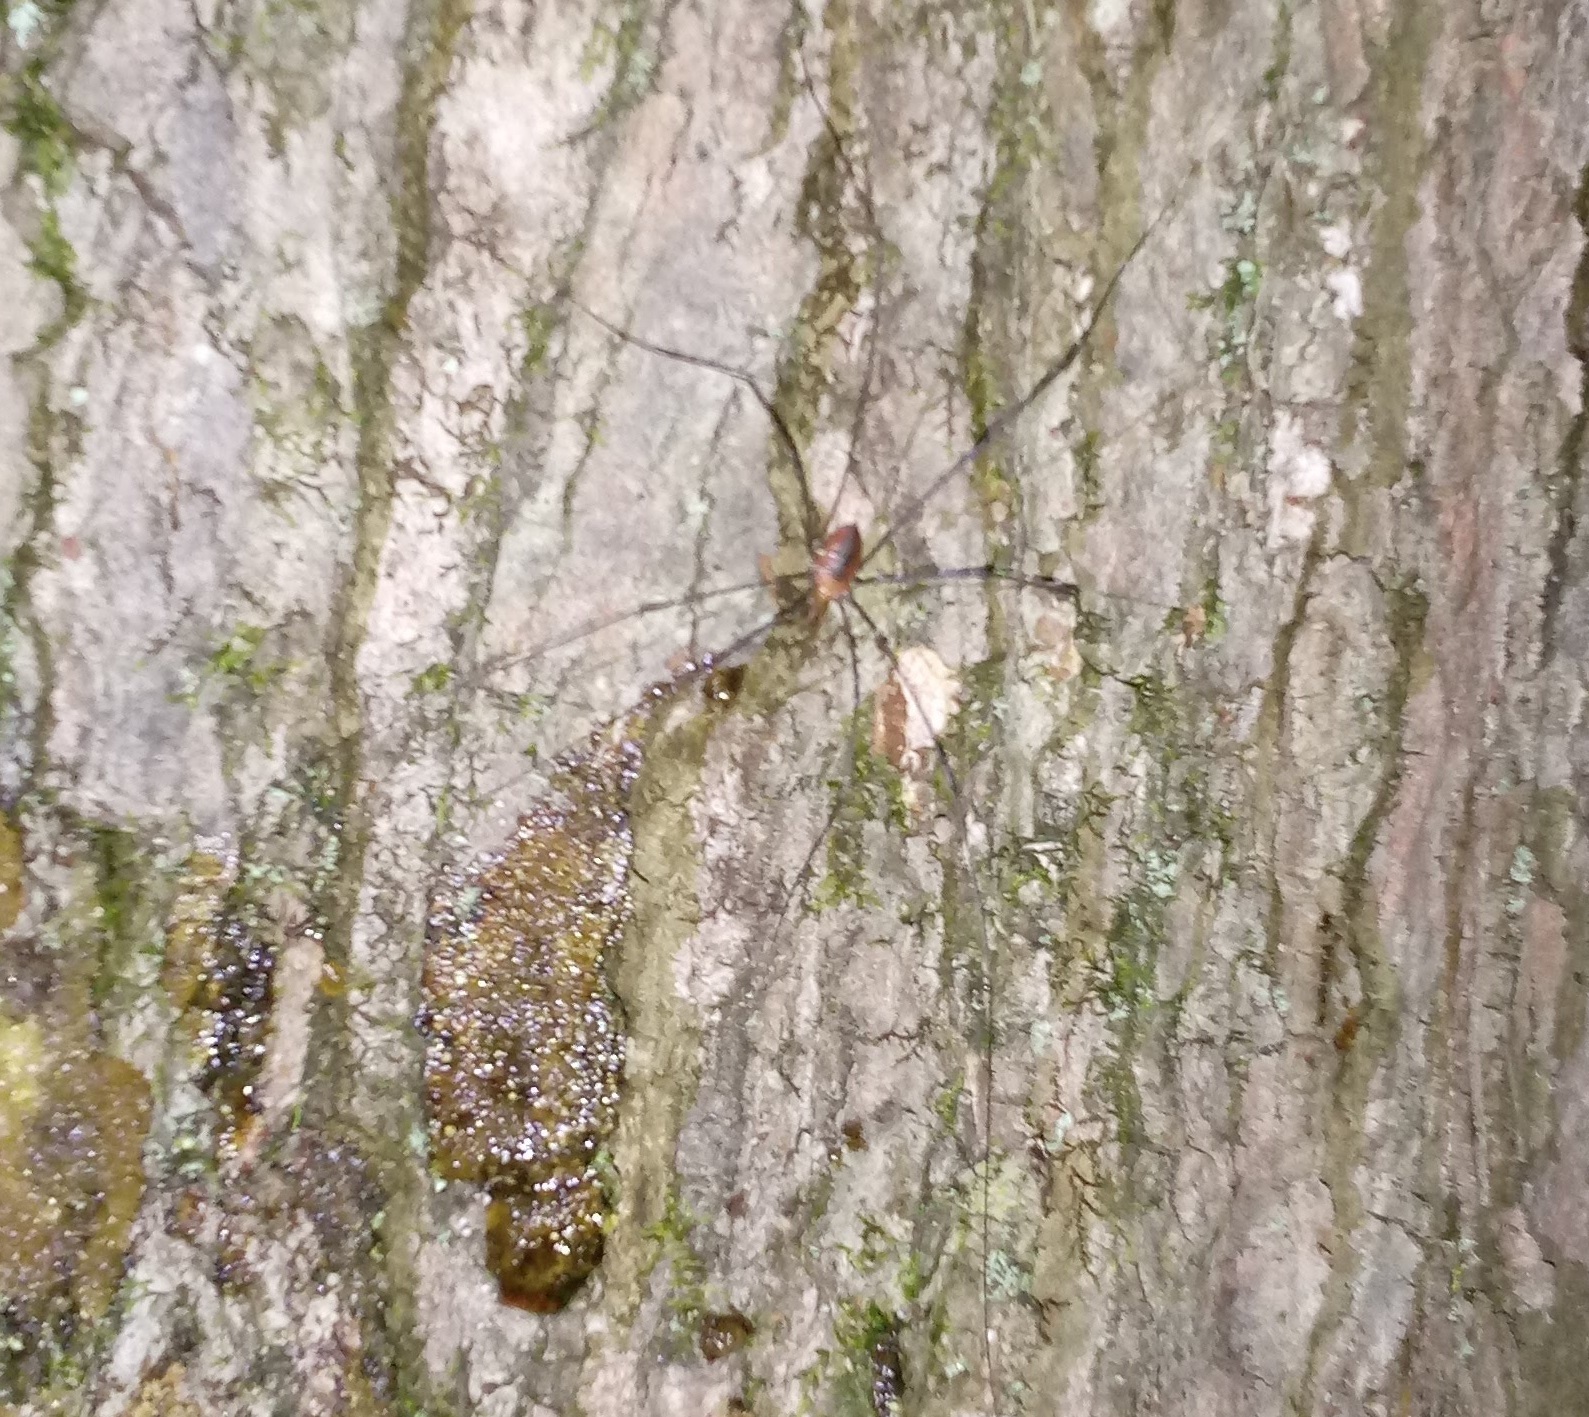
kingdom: Animalia
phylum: Arthropoda
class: Arachnida
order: Opiliones
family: Sclerosomatidae
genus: Leiobunum
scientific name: Leiobunum vittatum
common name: Eastern harvestman
